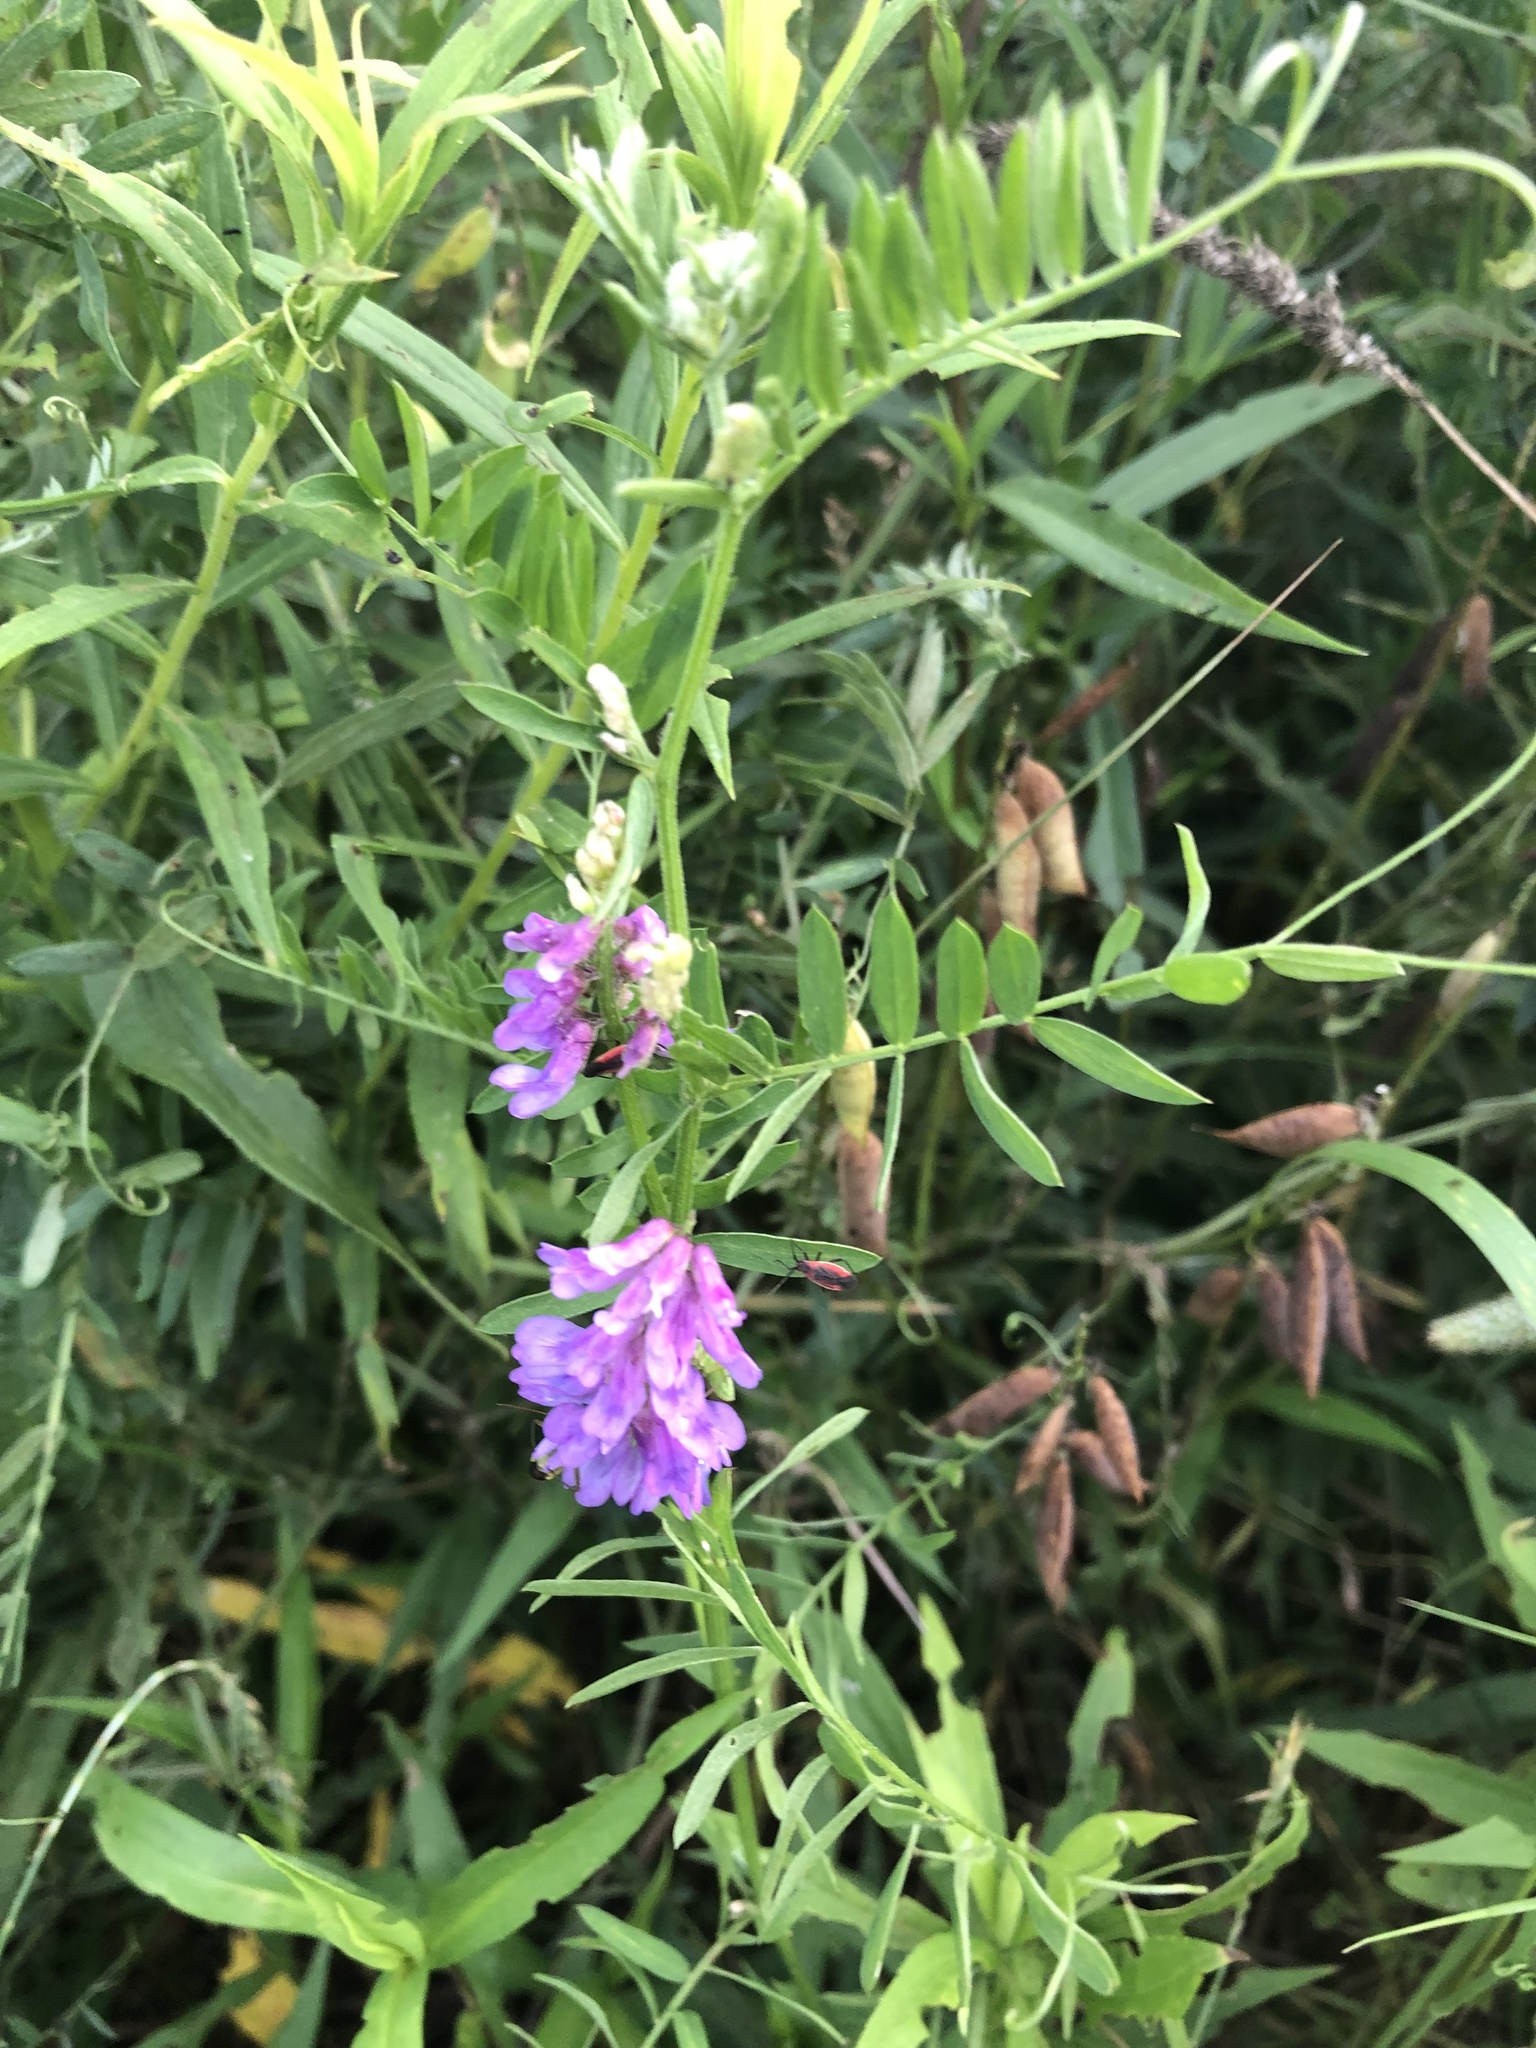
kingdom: Plantae
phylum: Tracheophyta
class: Magnoliopsida
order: Fabales
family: Fabaceae
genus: Vicia
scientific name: Vicia cracca
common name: Bird vetch
